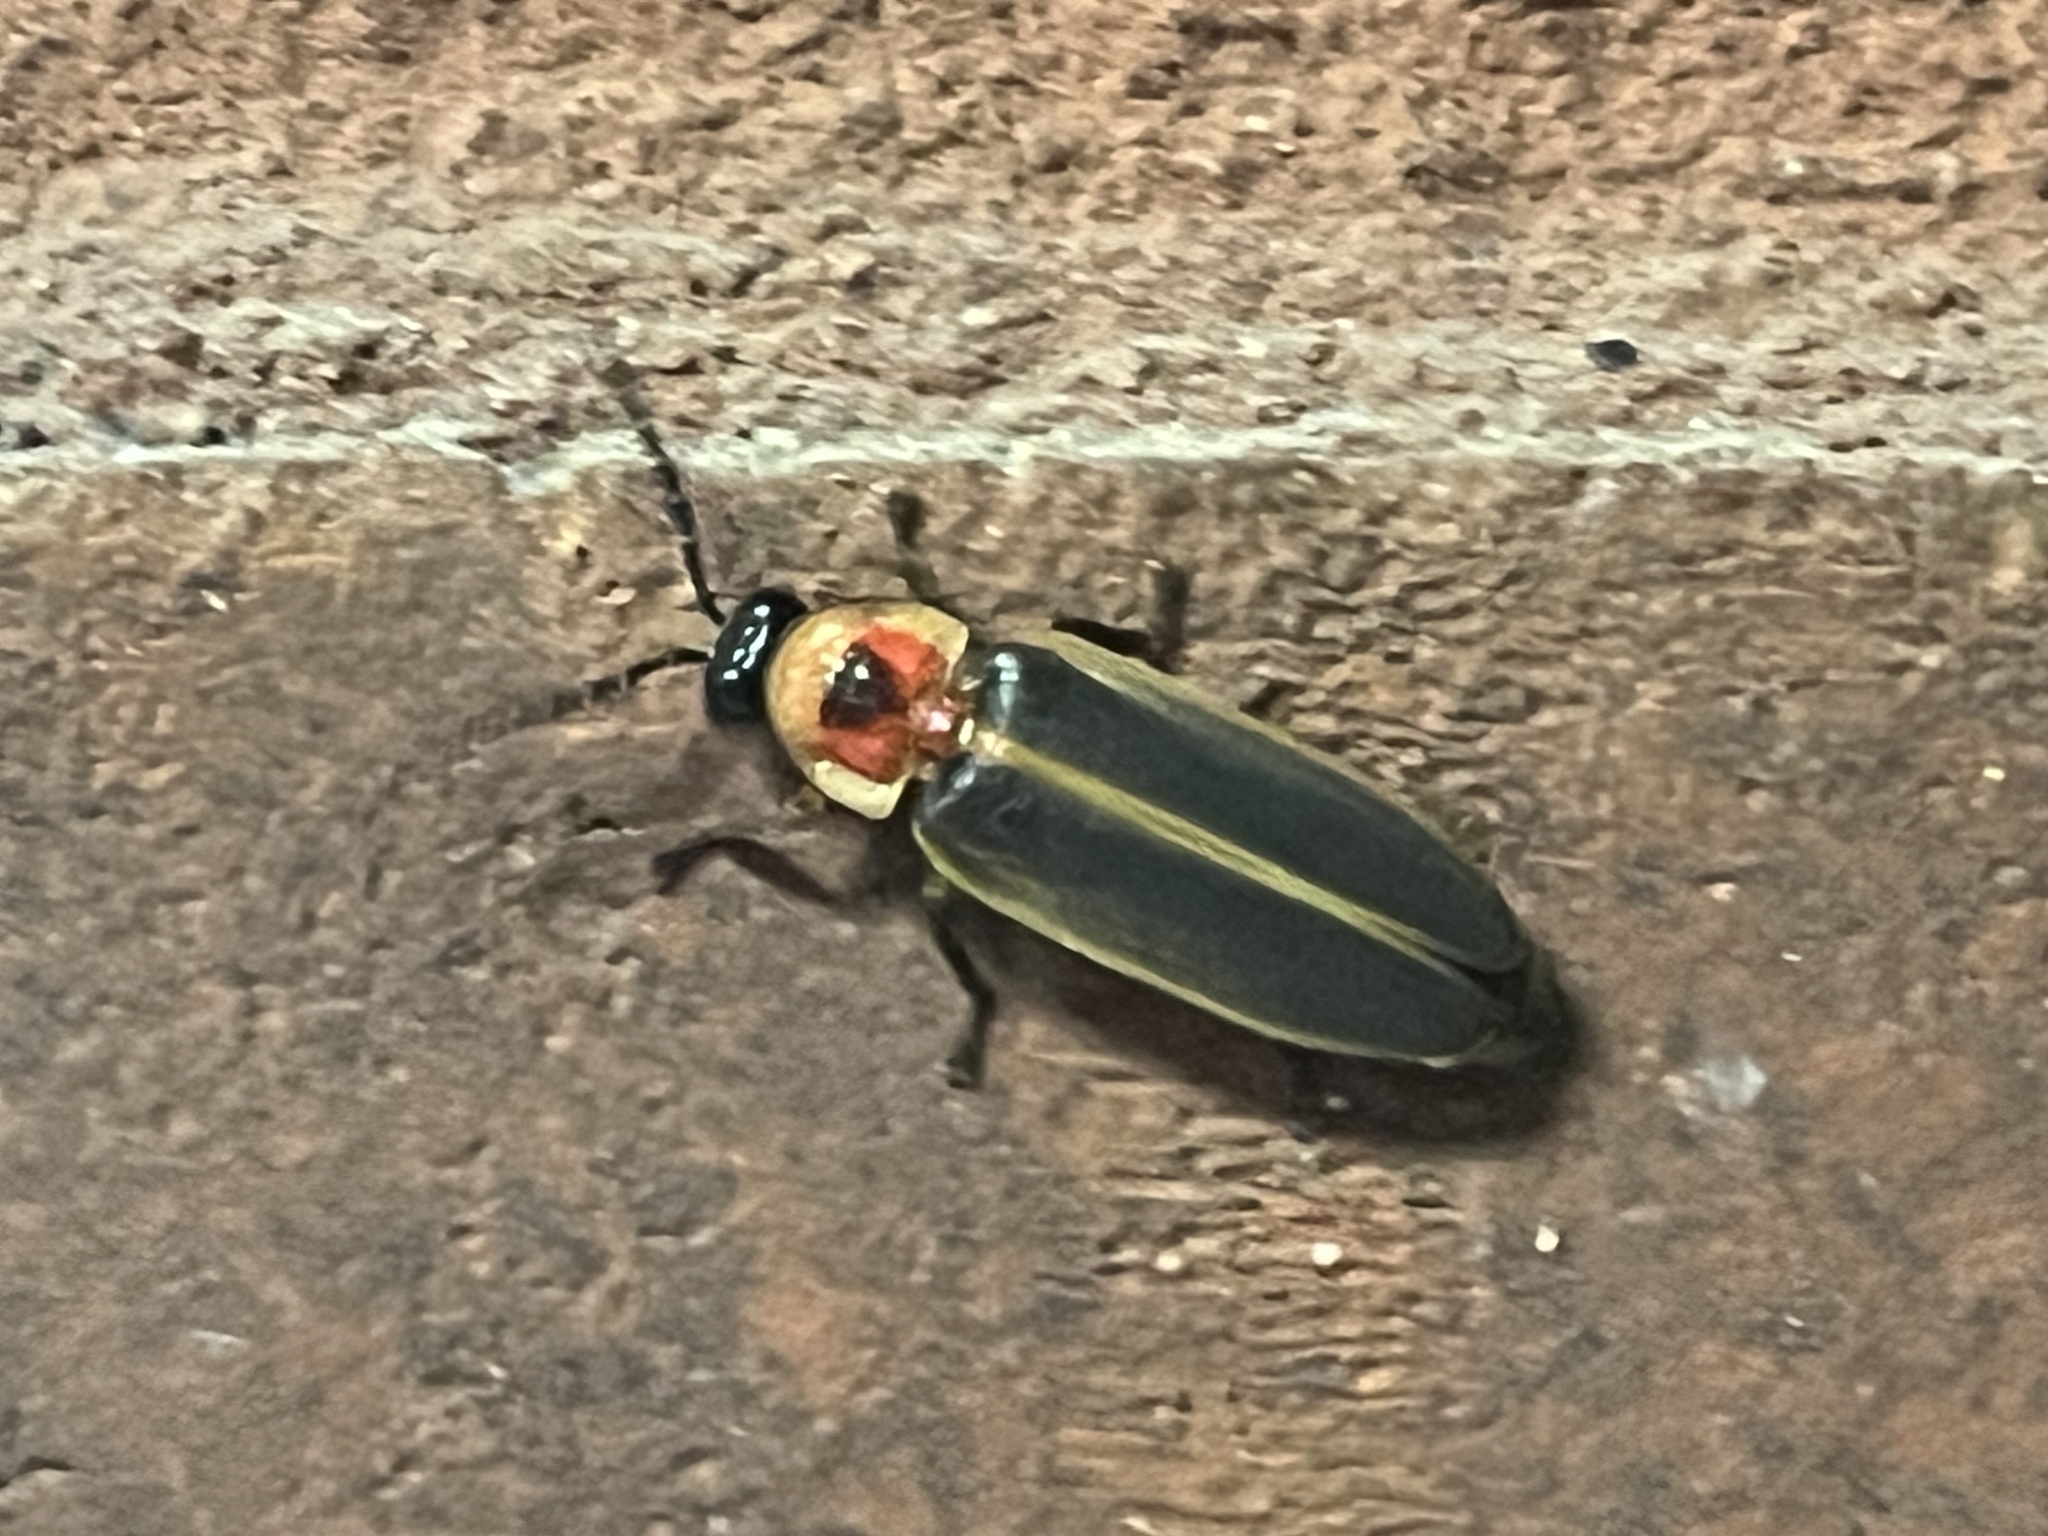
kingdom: Animalia
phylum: Arthropoda
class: Insecta
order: Coleoptera
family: Lampyridae
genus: Photinus
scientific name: Photinus pyralis
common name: Big dipper firefly
